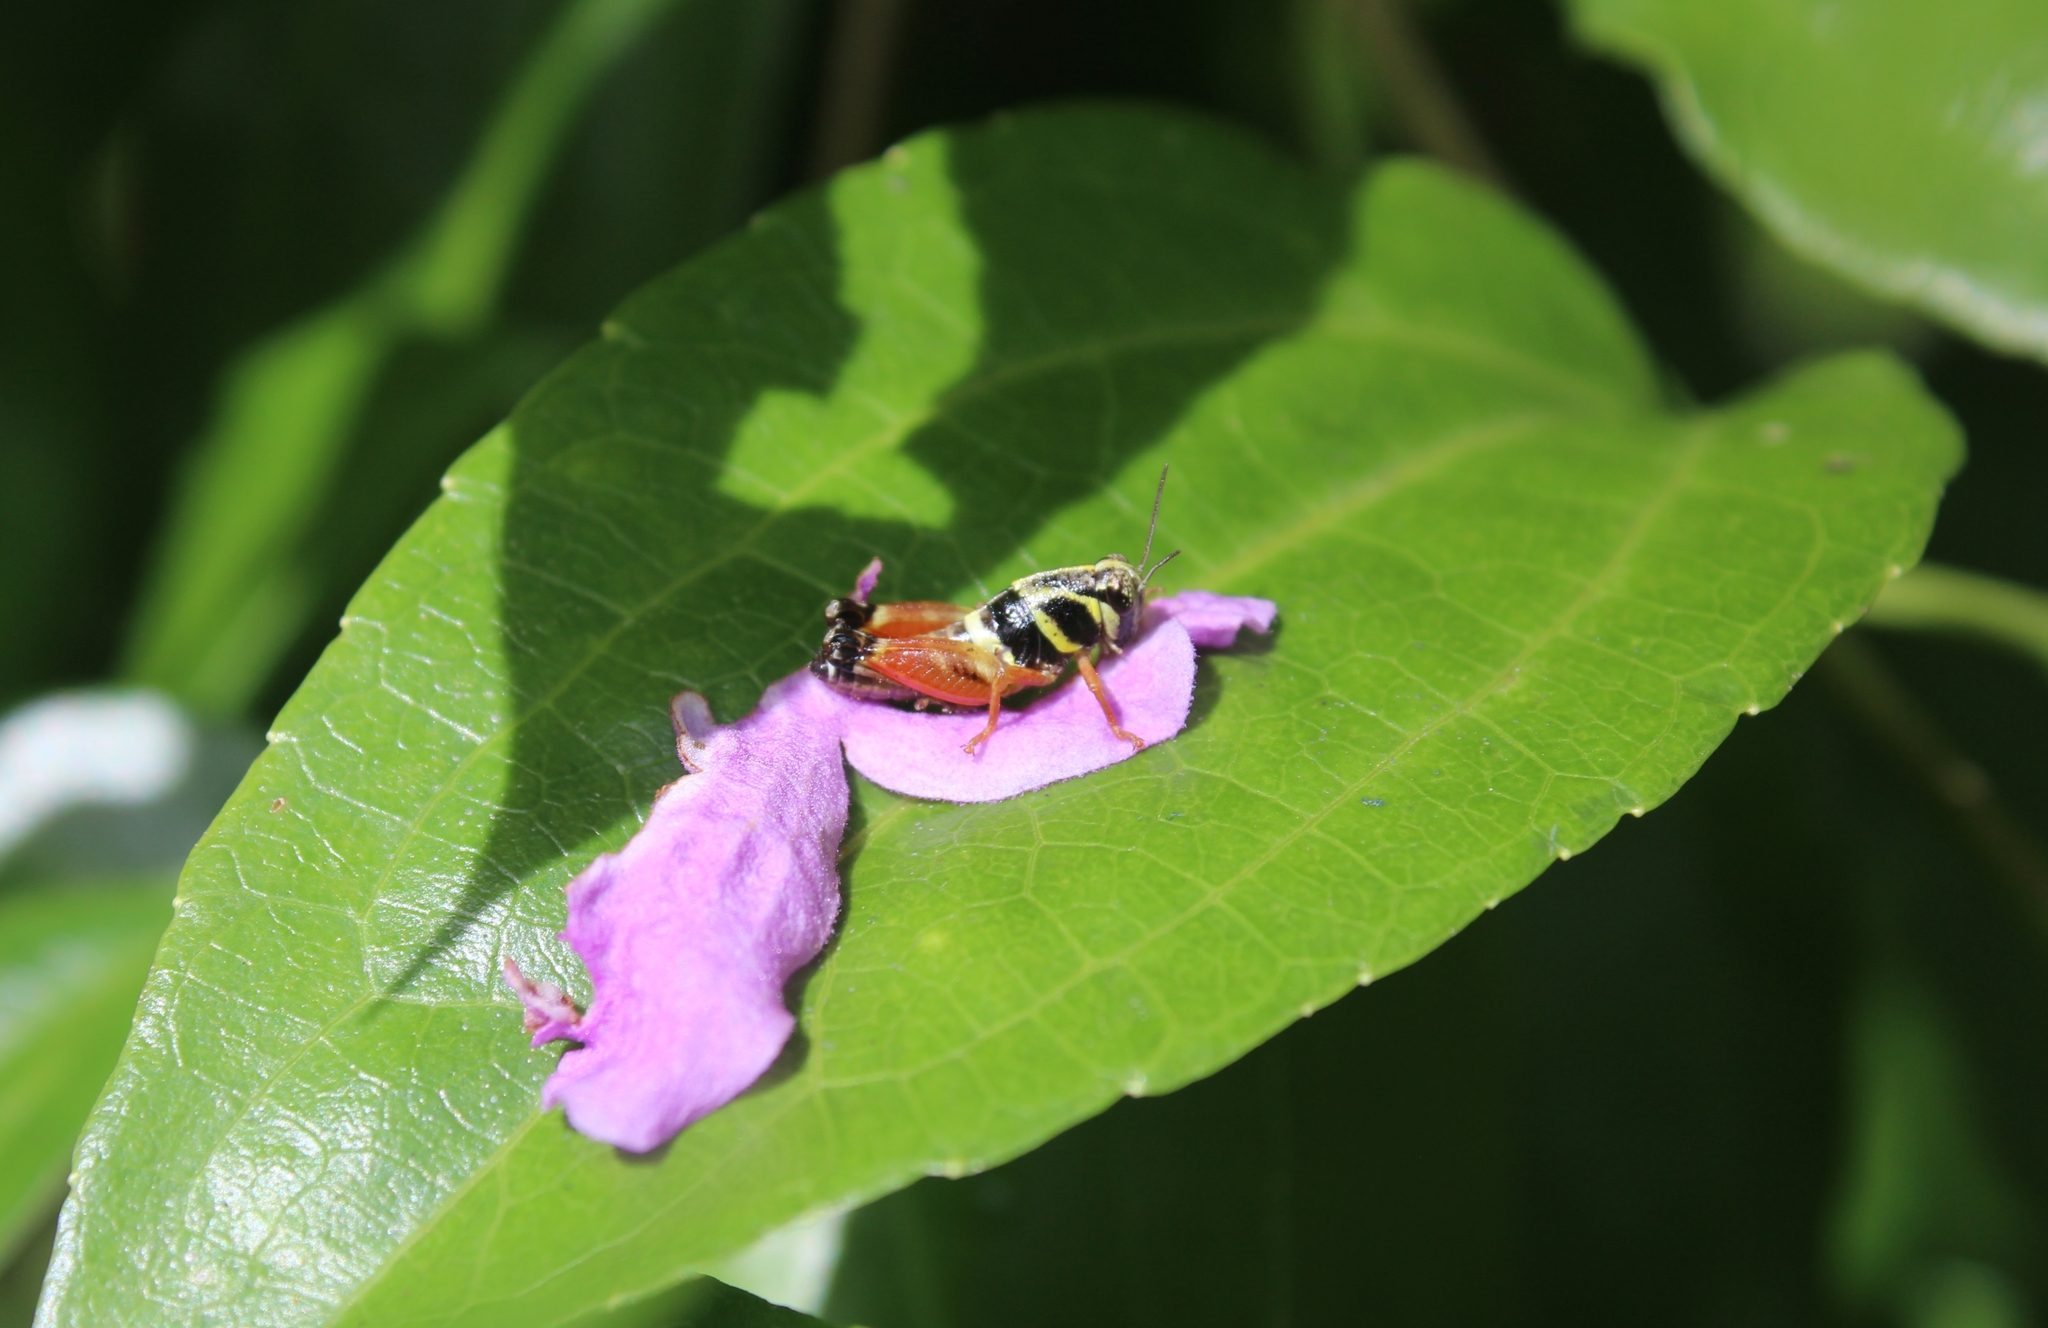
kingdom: Animalia
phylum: Arthropoda
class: Insecta
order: Orthoptera
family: Acrididae
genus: Aidemona
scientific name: Aidemona azteca
